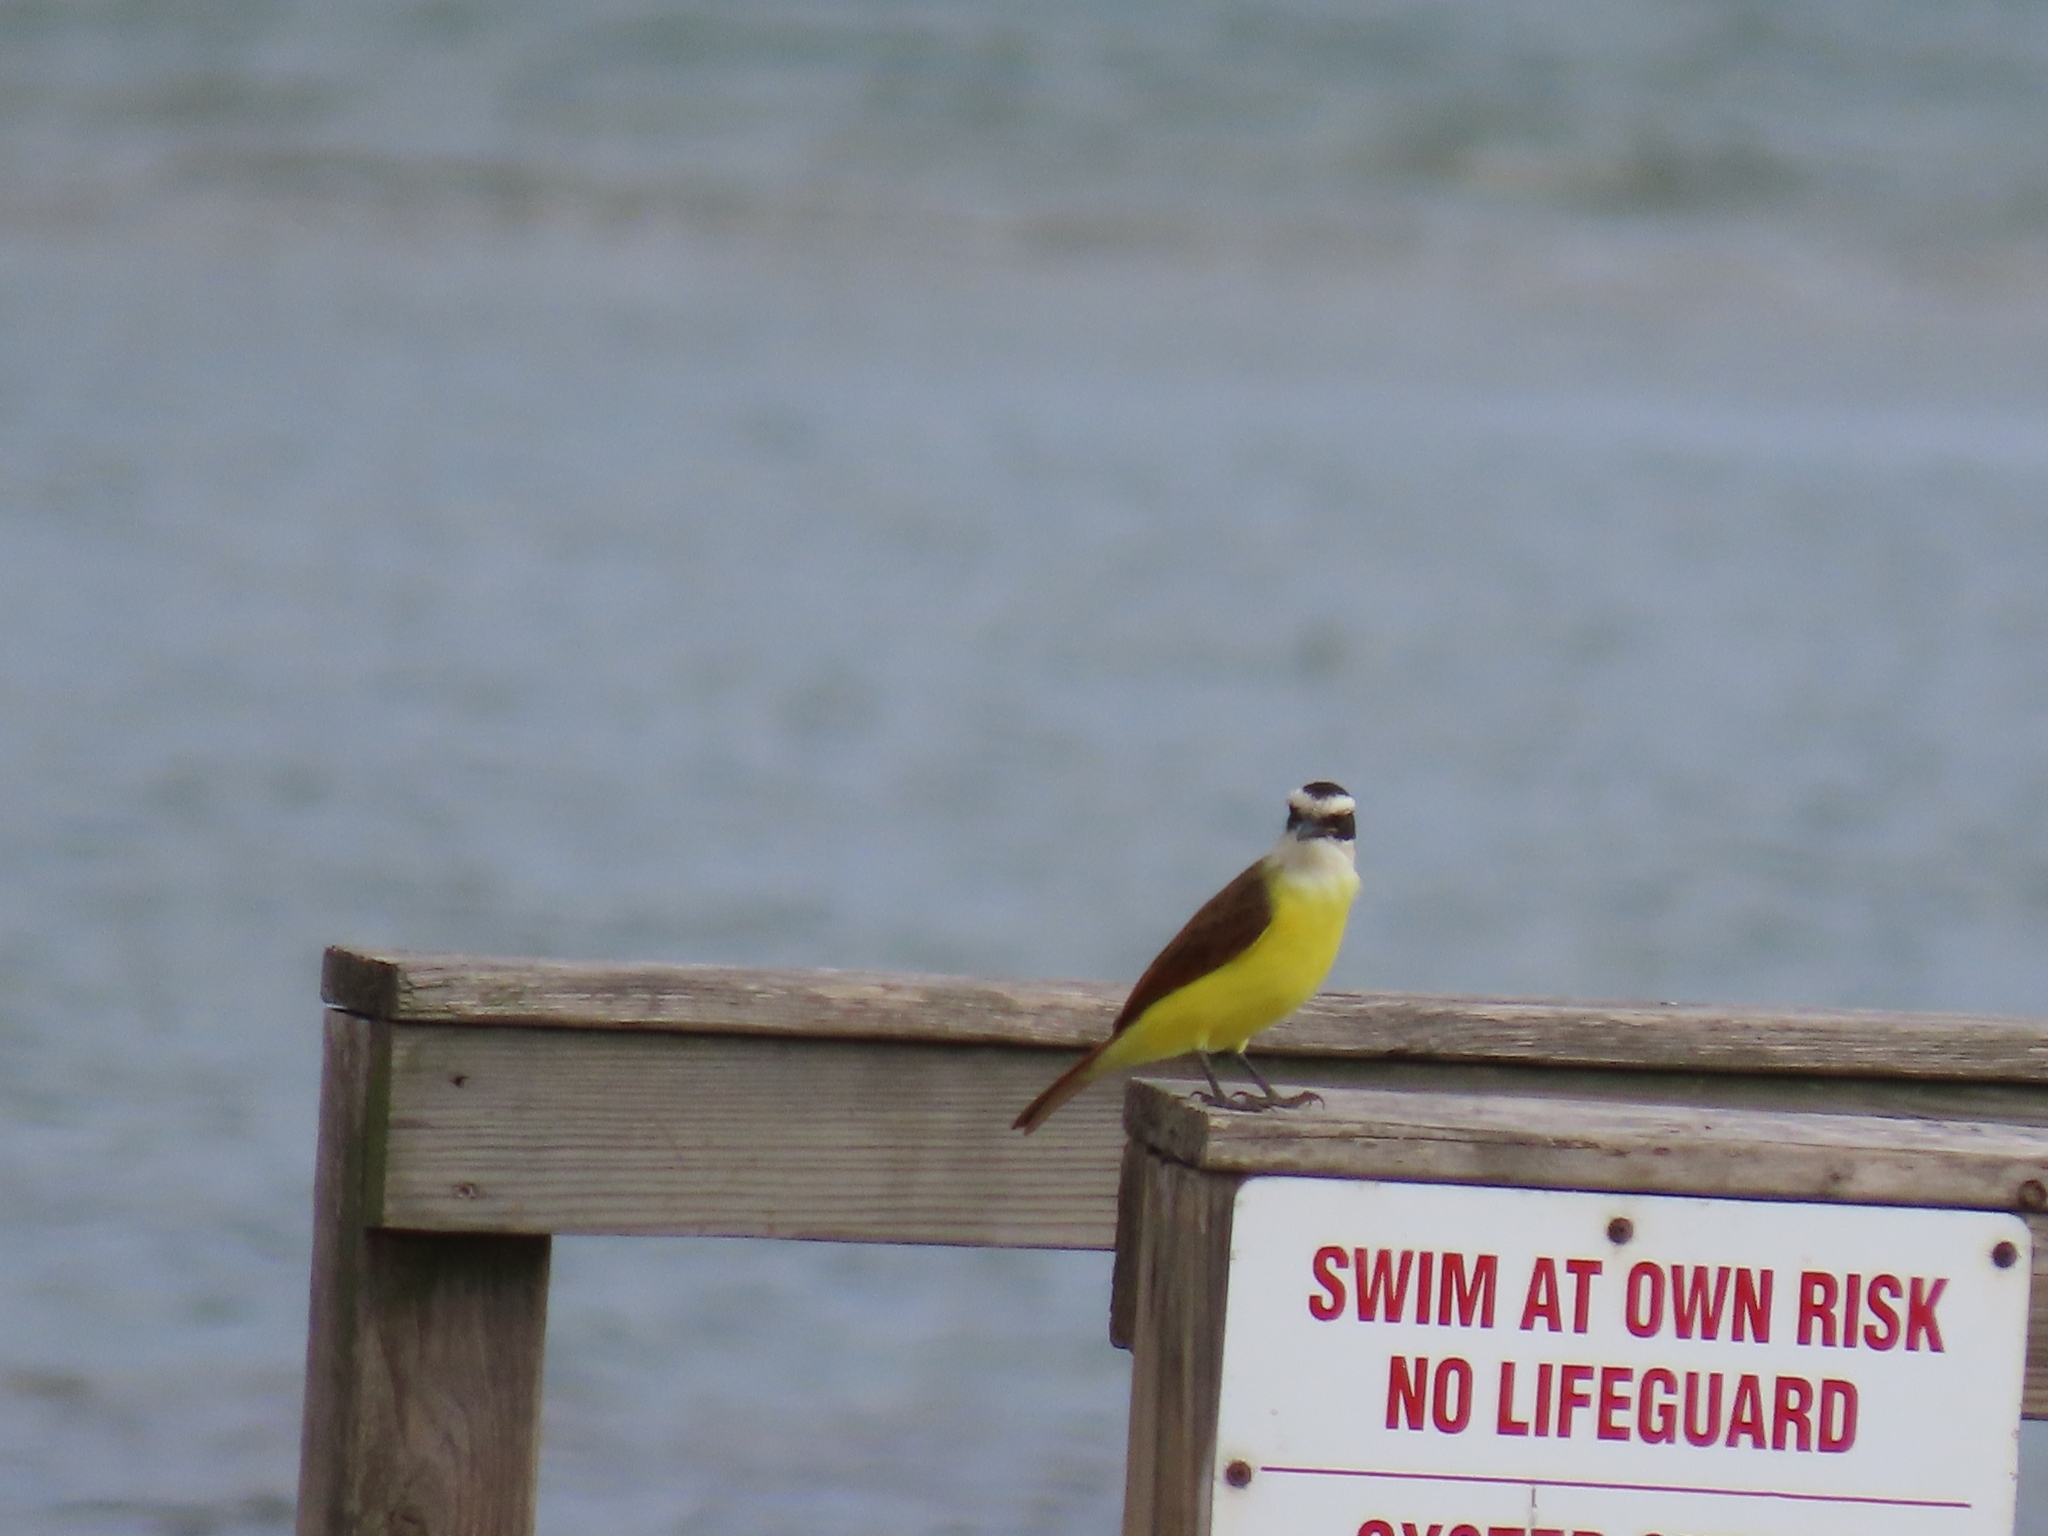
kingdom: Animalia
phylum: Chordata
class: Aves
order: Passeriformes
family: Tyrannidae
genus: Pitangus
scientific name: Pitangus sulphuratus
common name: Great kiskadee
